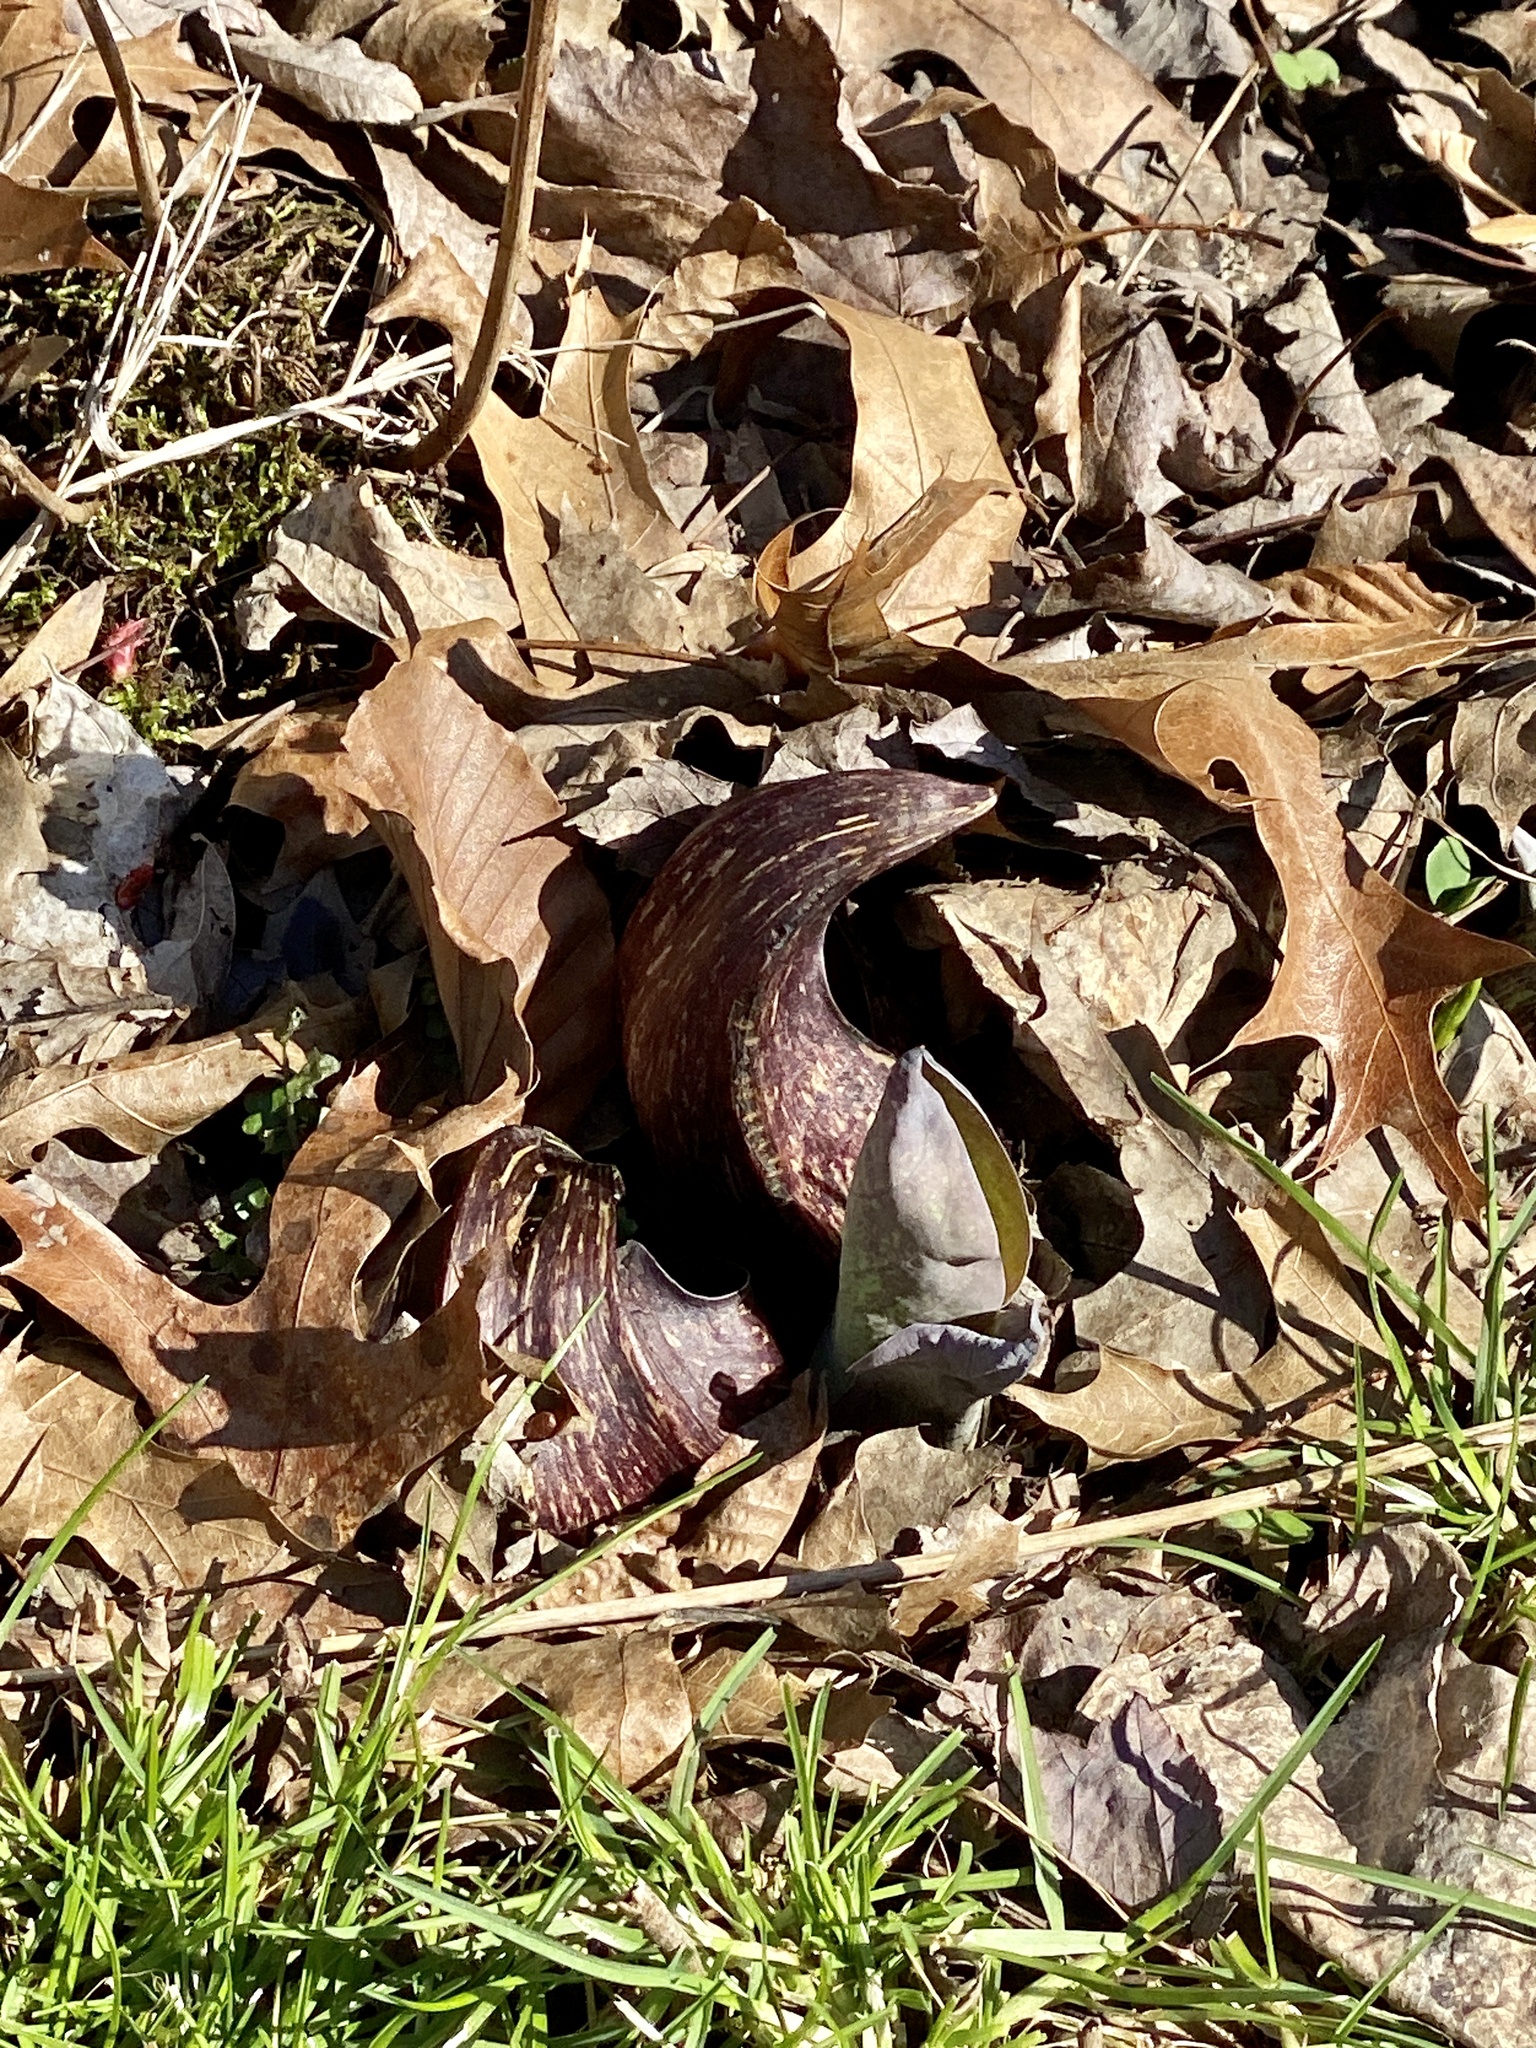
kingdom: Plantae
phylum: Tracheophyta
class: Liliopsida
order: Alismatales
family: Araceae
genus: Symplocarpus
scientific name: Symplocarpus foetidus
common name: Eastern skunk cabbage
